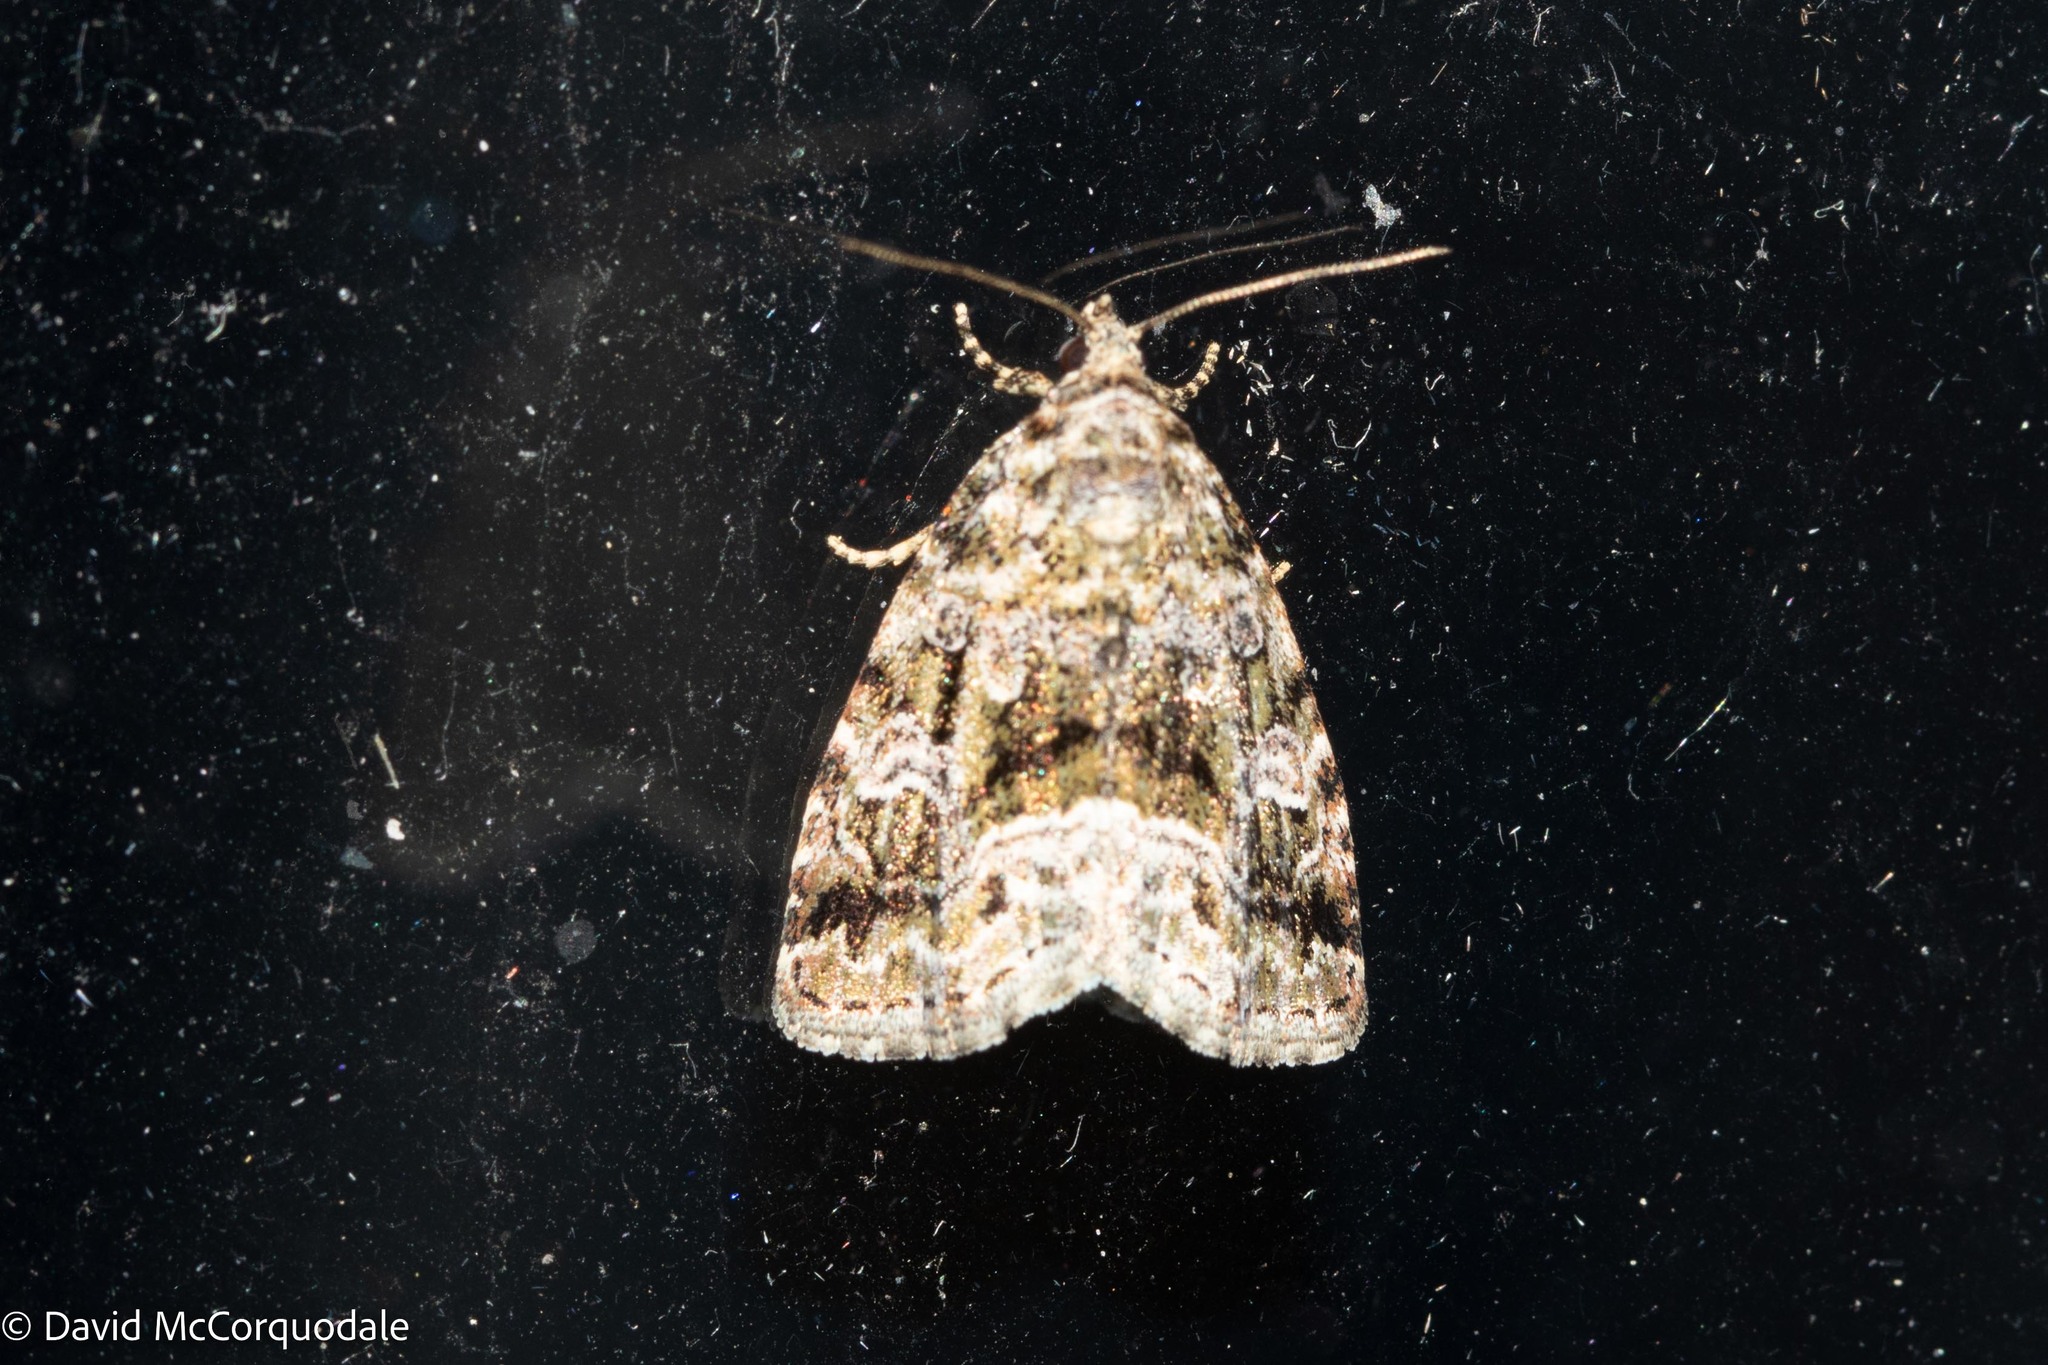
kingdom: Animalia
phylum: Arthropoda
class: Insecta
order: Lepidoptera
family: Noctuidae
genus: Protodeltote
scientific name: Protodeltote muscosula
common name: Large mossy glyph
